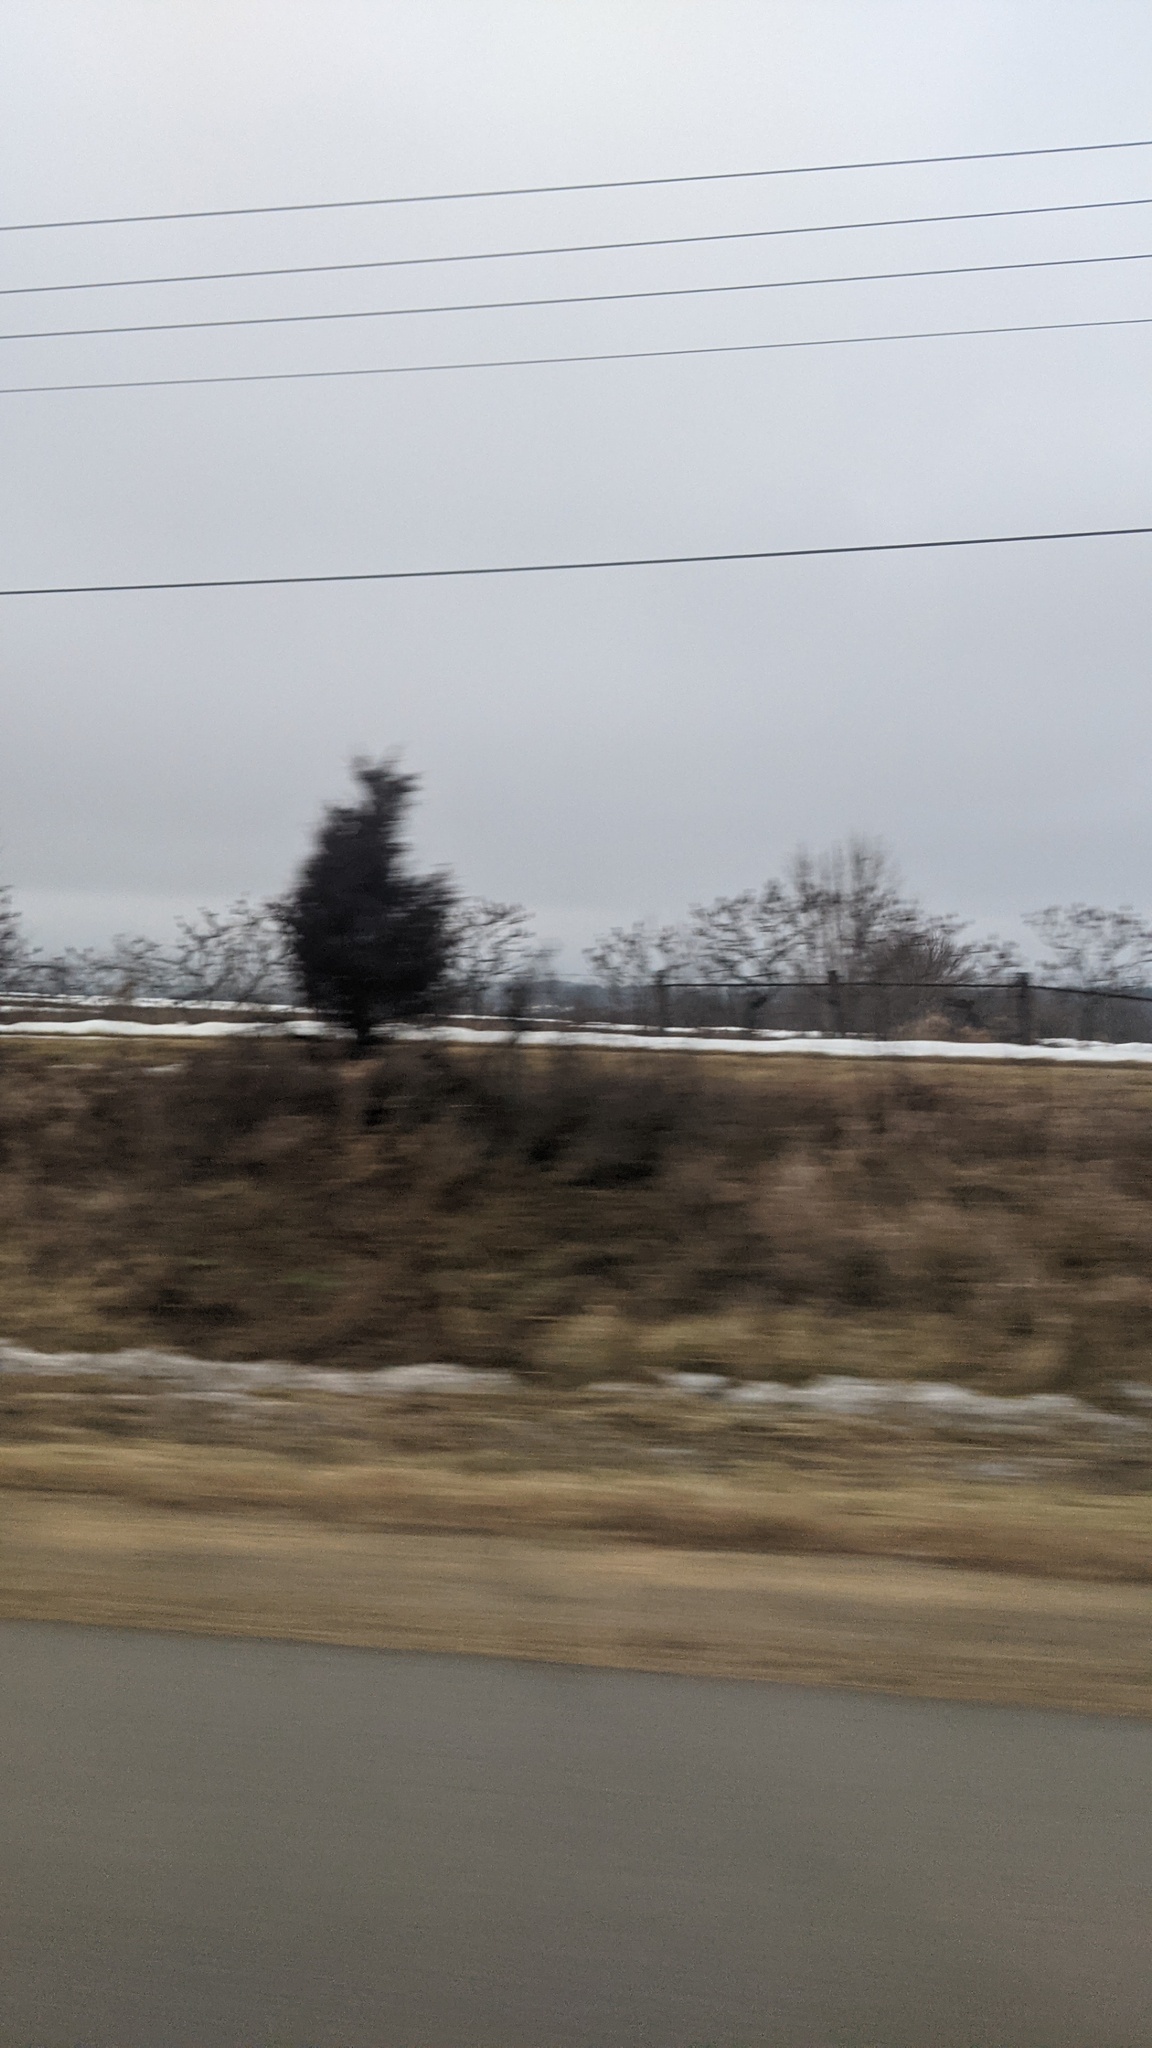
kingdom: Plantae
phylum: Tracheophyta
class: Pinopsida
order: Pinales
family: Cupressaceae
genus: Juniperus
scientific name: Juniperus virginiana
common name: Red juniper
